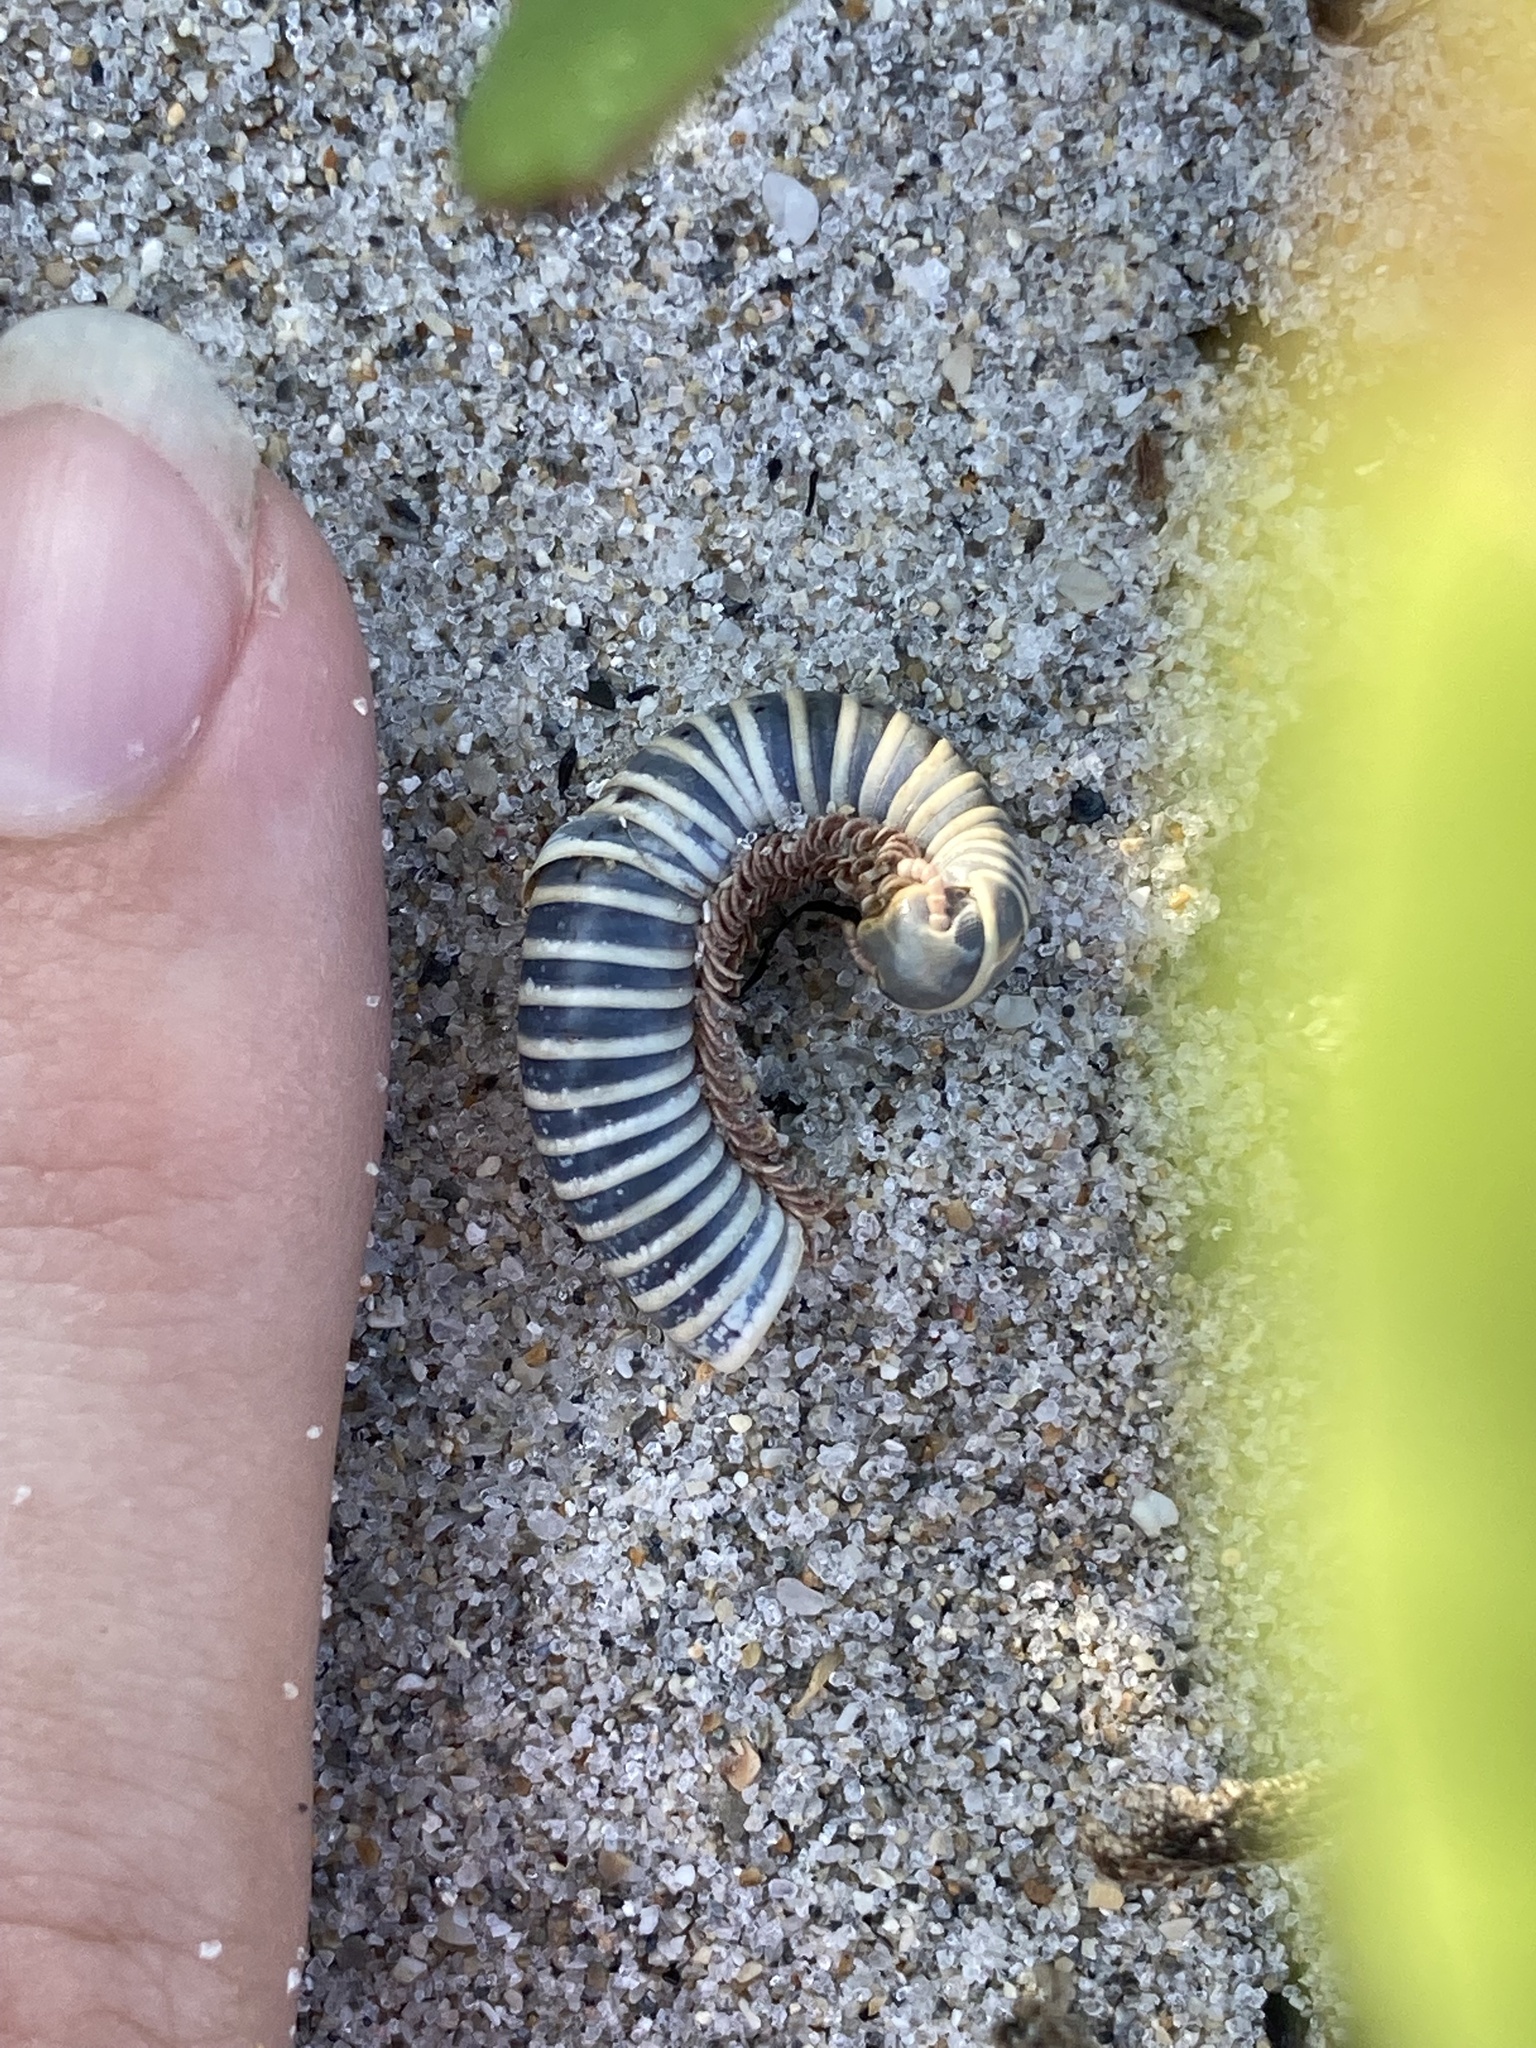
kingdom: Animalia
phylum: Arthropoda
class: Diplopoda
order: Spirobolida
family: Rhinocricidae
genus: Anadenobolus
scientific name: Anadenobolus monilicornis
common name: Caribbean millipede
